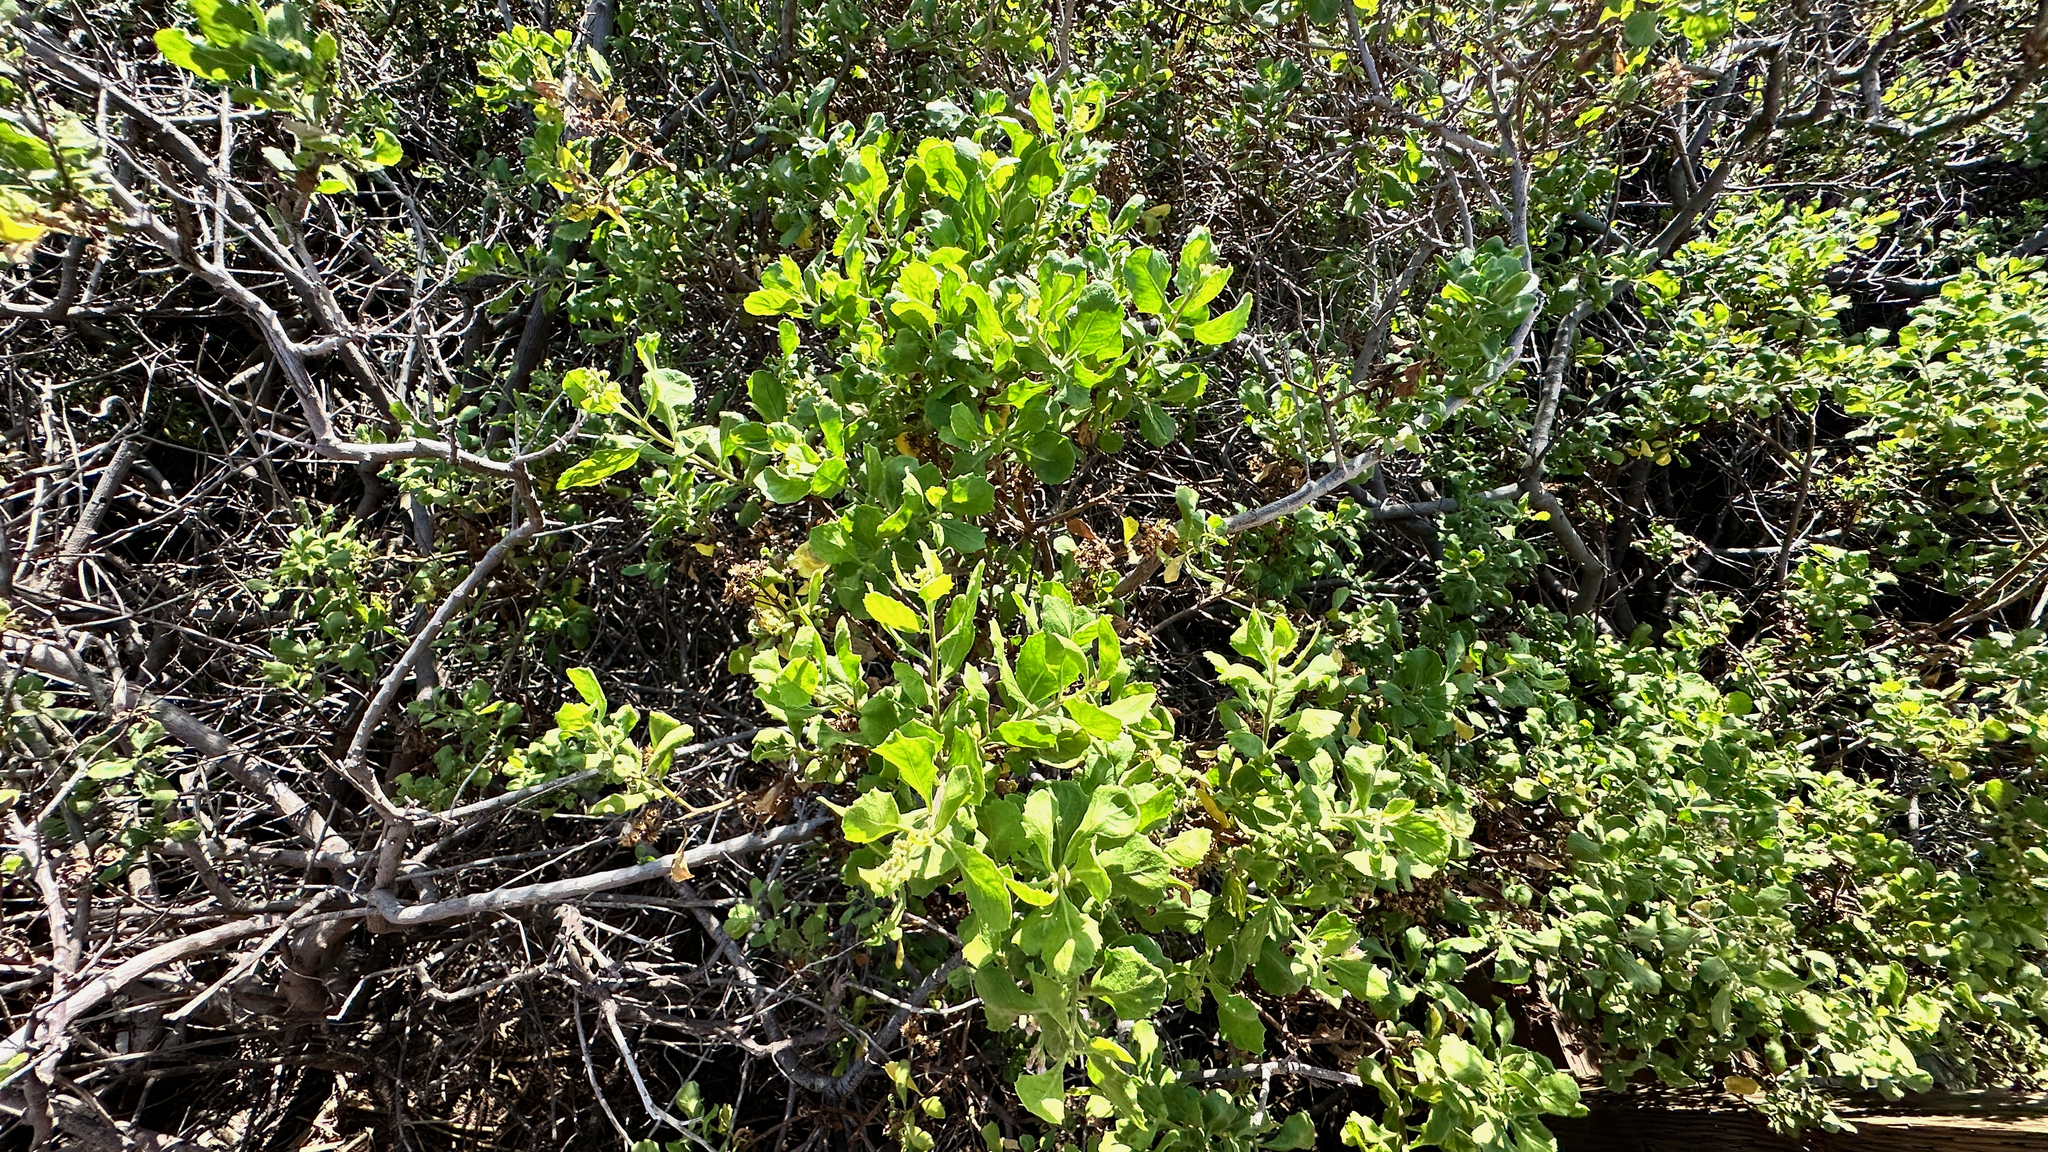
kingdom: Plantae
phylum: Tracheophyta
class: Magnoliopsida
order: Asterales
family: Asteraceae
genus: Pluchea
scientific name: Pluchea indica
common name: Indian fleabane
